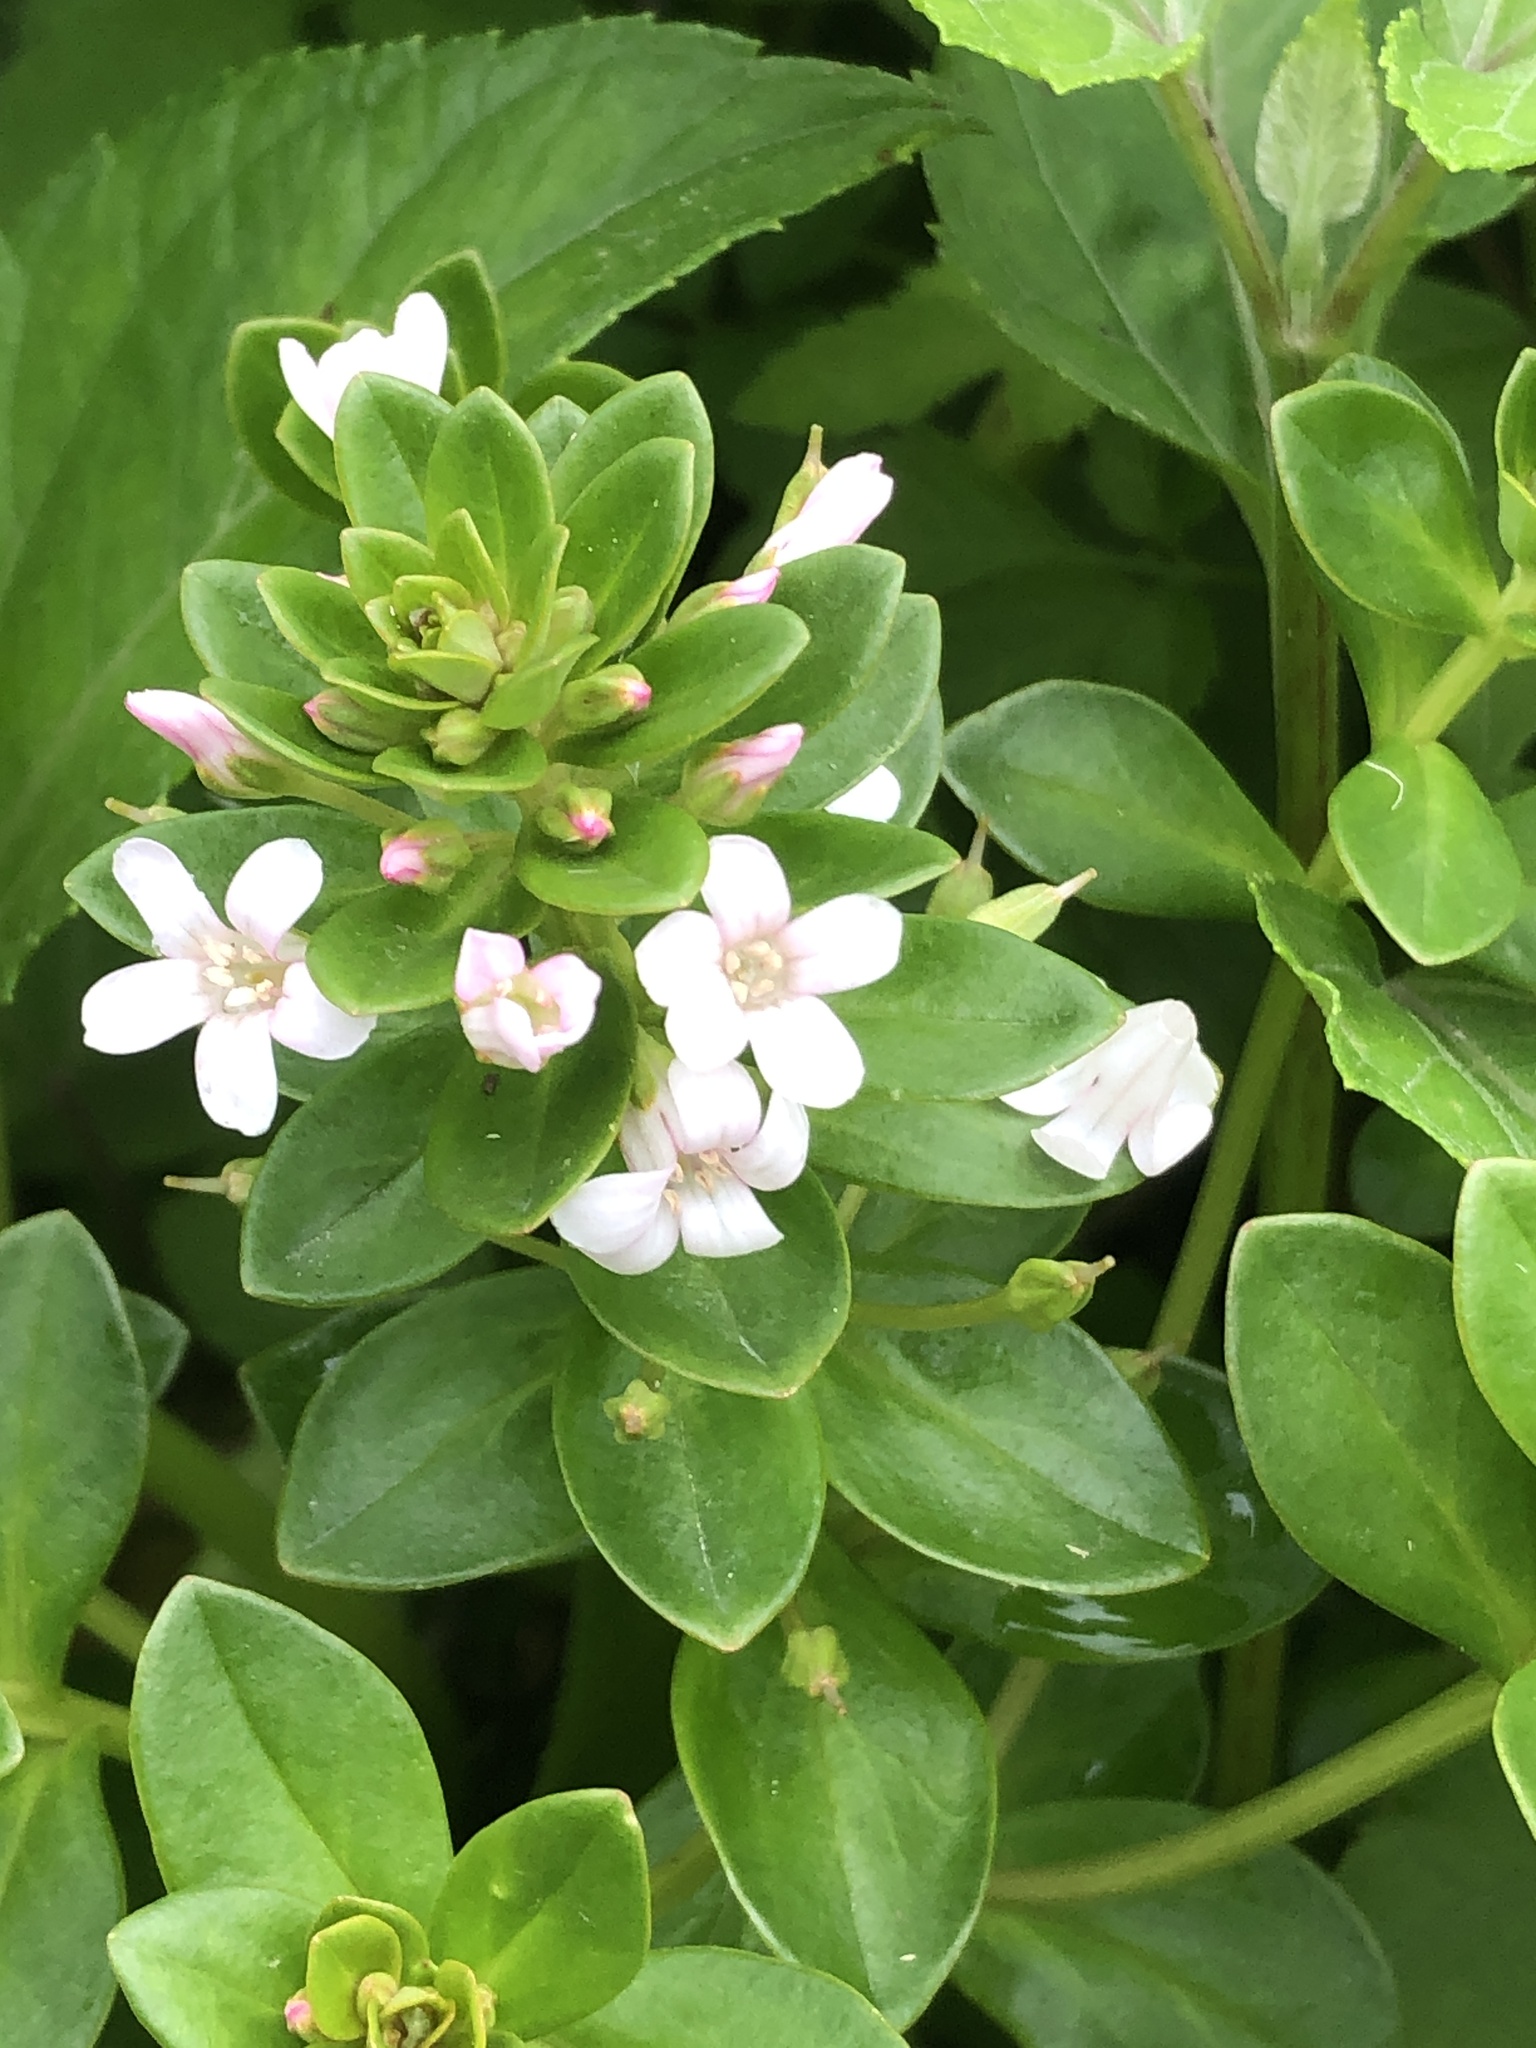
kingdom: Plantae
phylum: Tracheophyta
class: Magnoliopsida
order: Ericales
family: Primulaceae
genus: Lysimachia
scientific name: Lysimachia mauritiana
